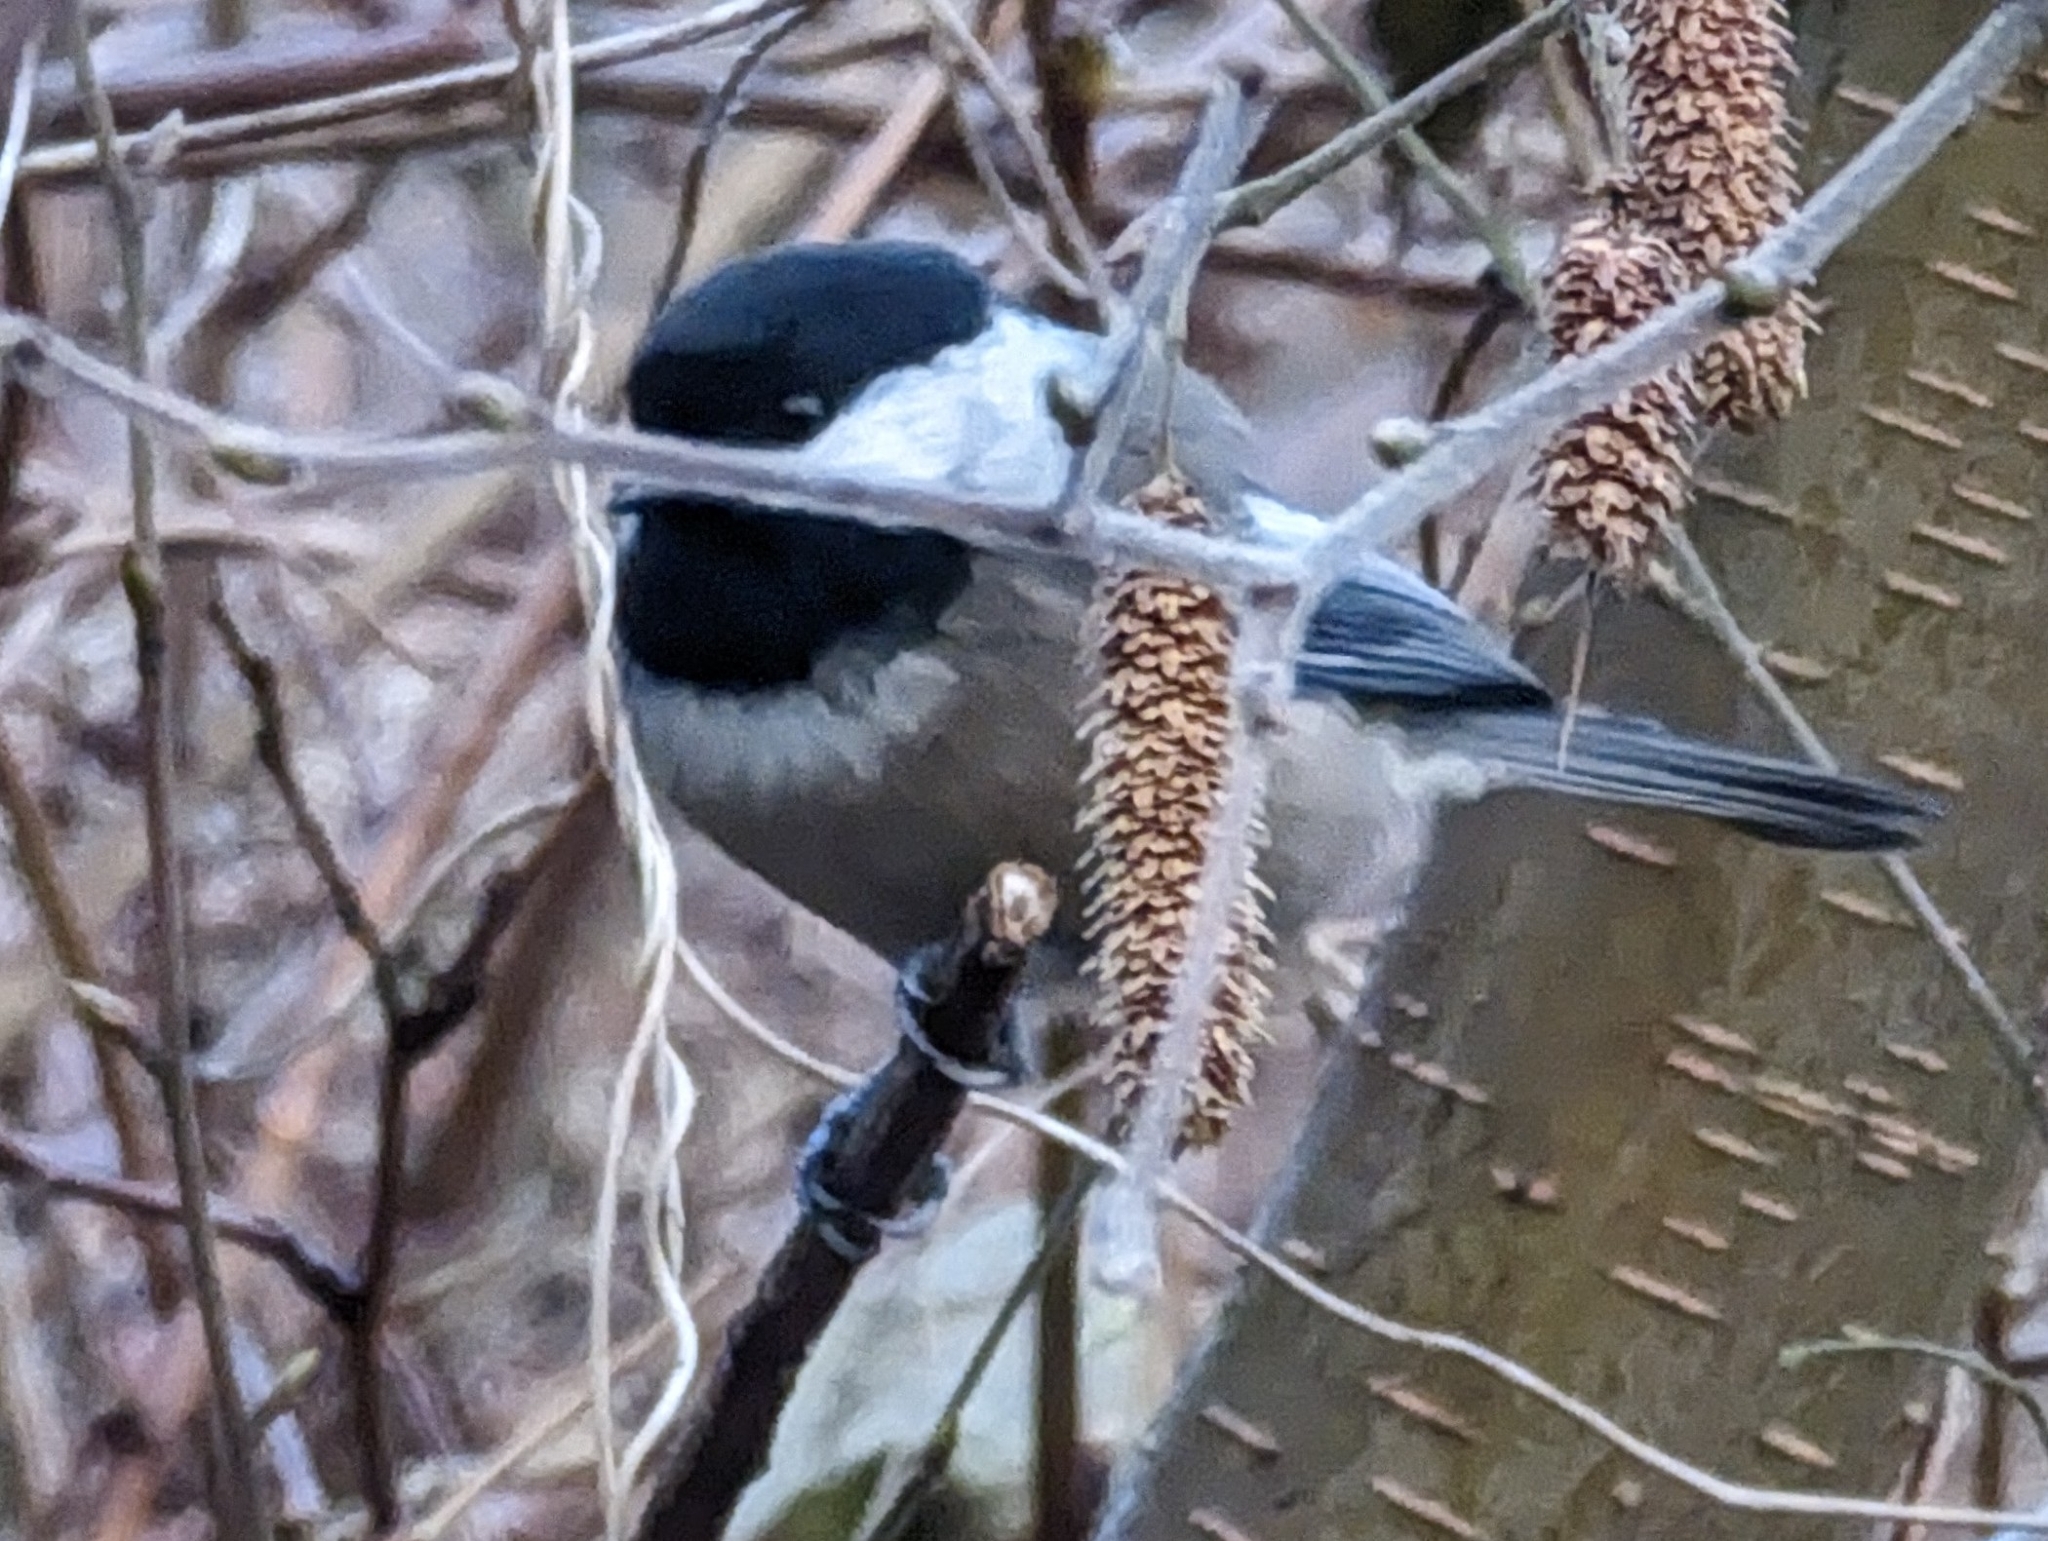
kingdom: Animalia
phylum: Chordata
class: Aves
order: Passeriformes
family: Paridae
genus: Poecile
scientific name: Poecile atricapillus
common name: Black-capped chickadee
